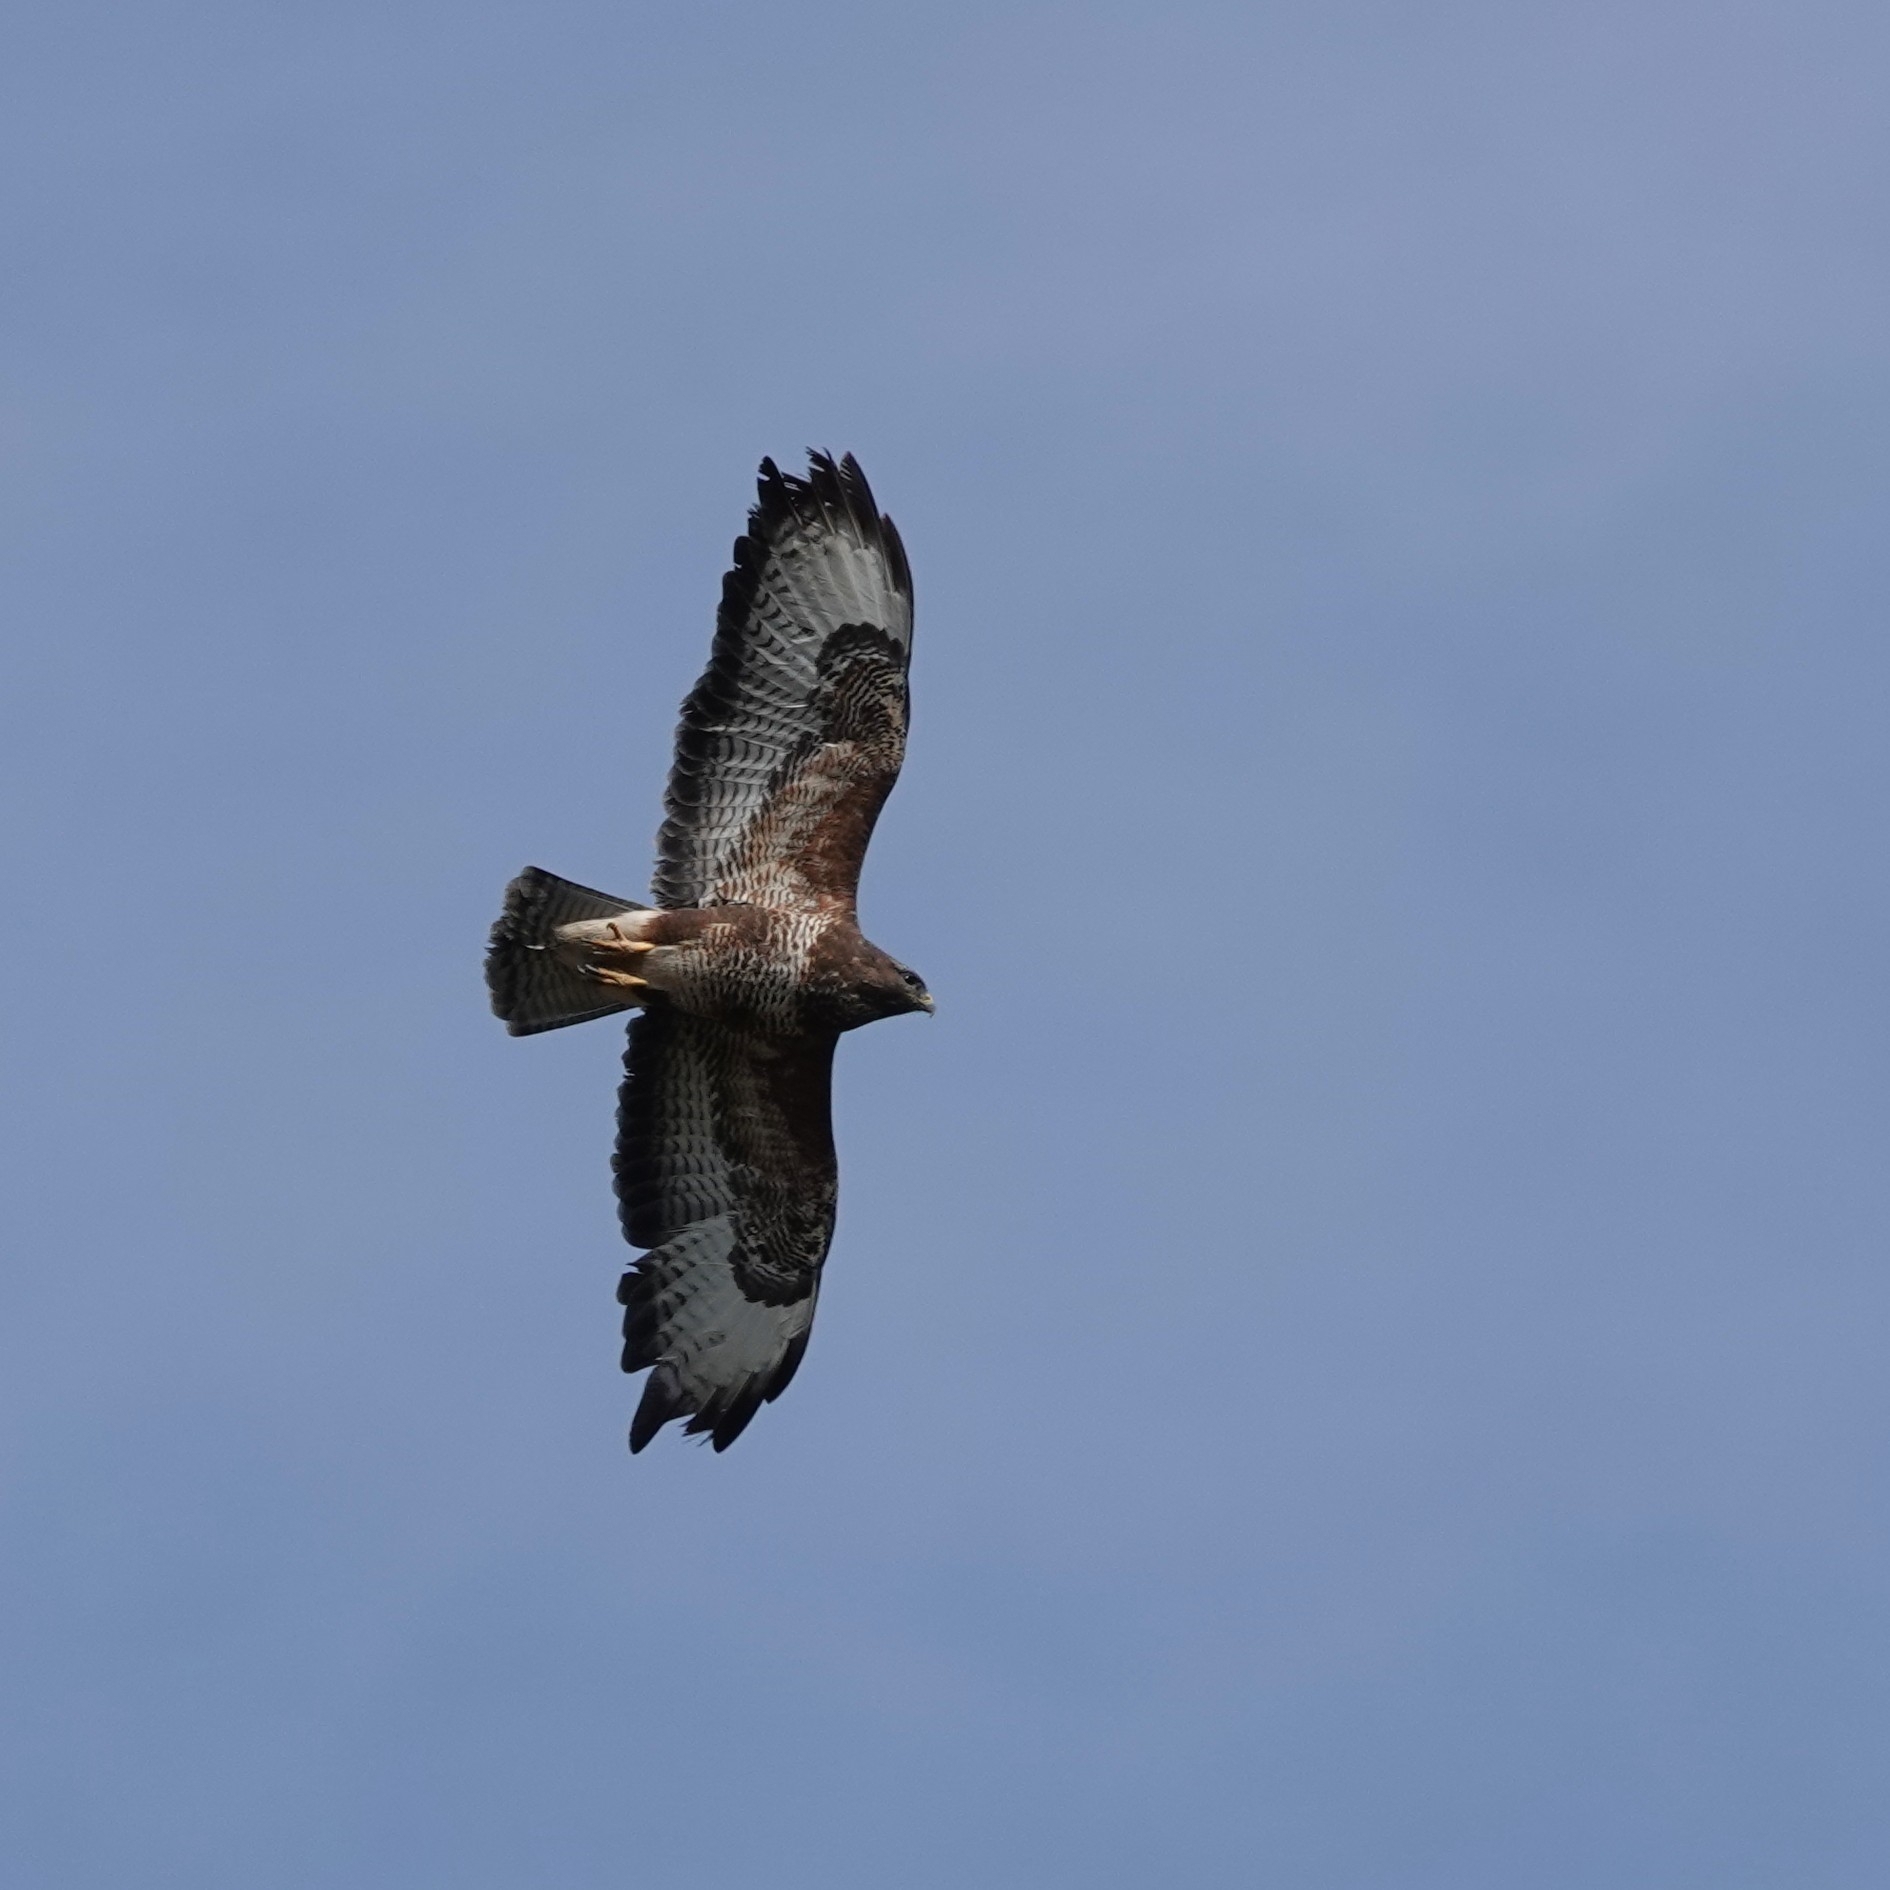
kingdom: Animalia
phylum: Chordata
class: Aves
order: Accipitriformes
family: Accipitridae
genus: Buteo
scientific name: Buteo buteo
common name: Common buzzard
